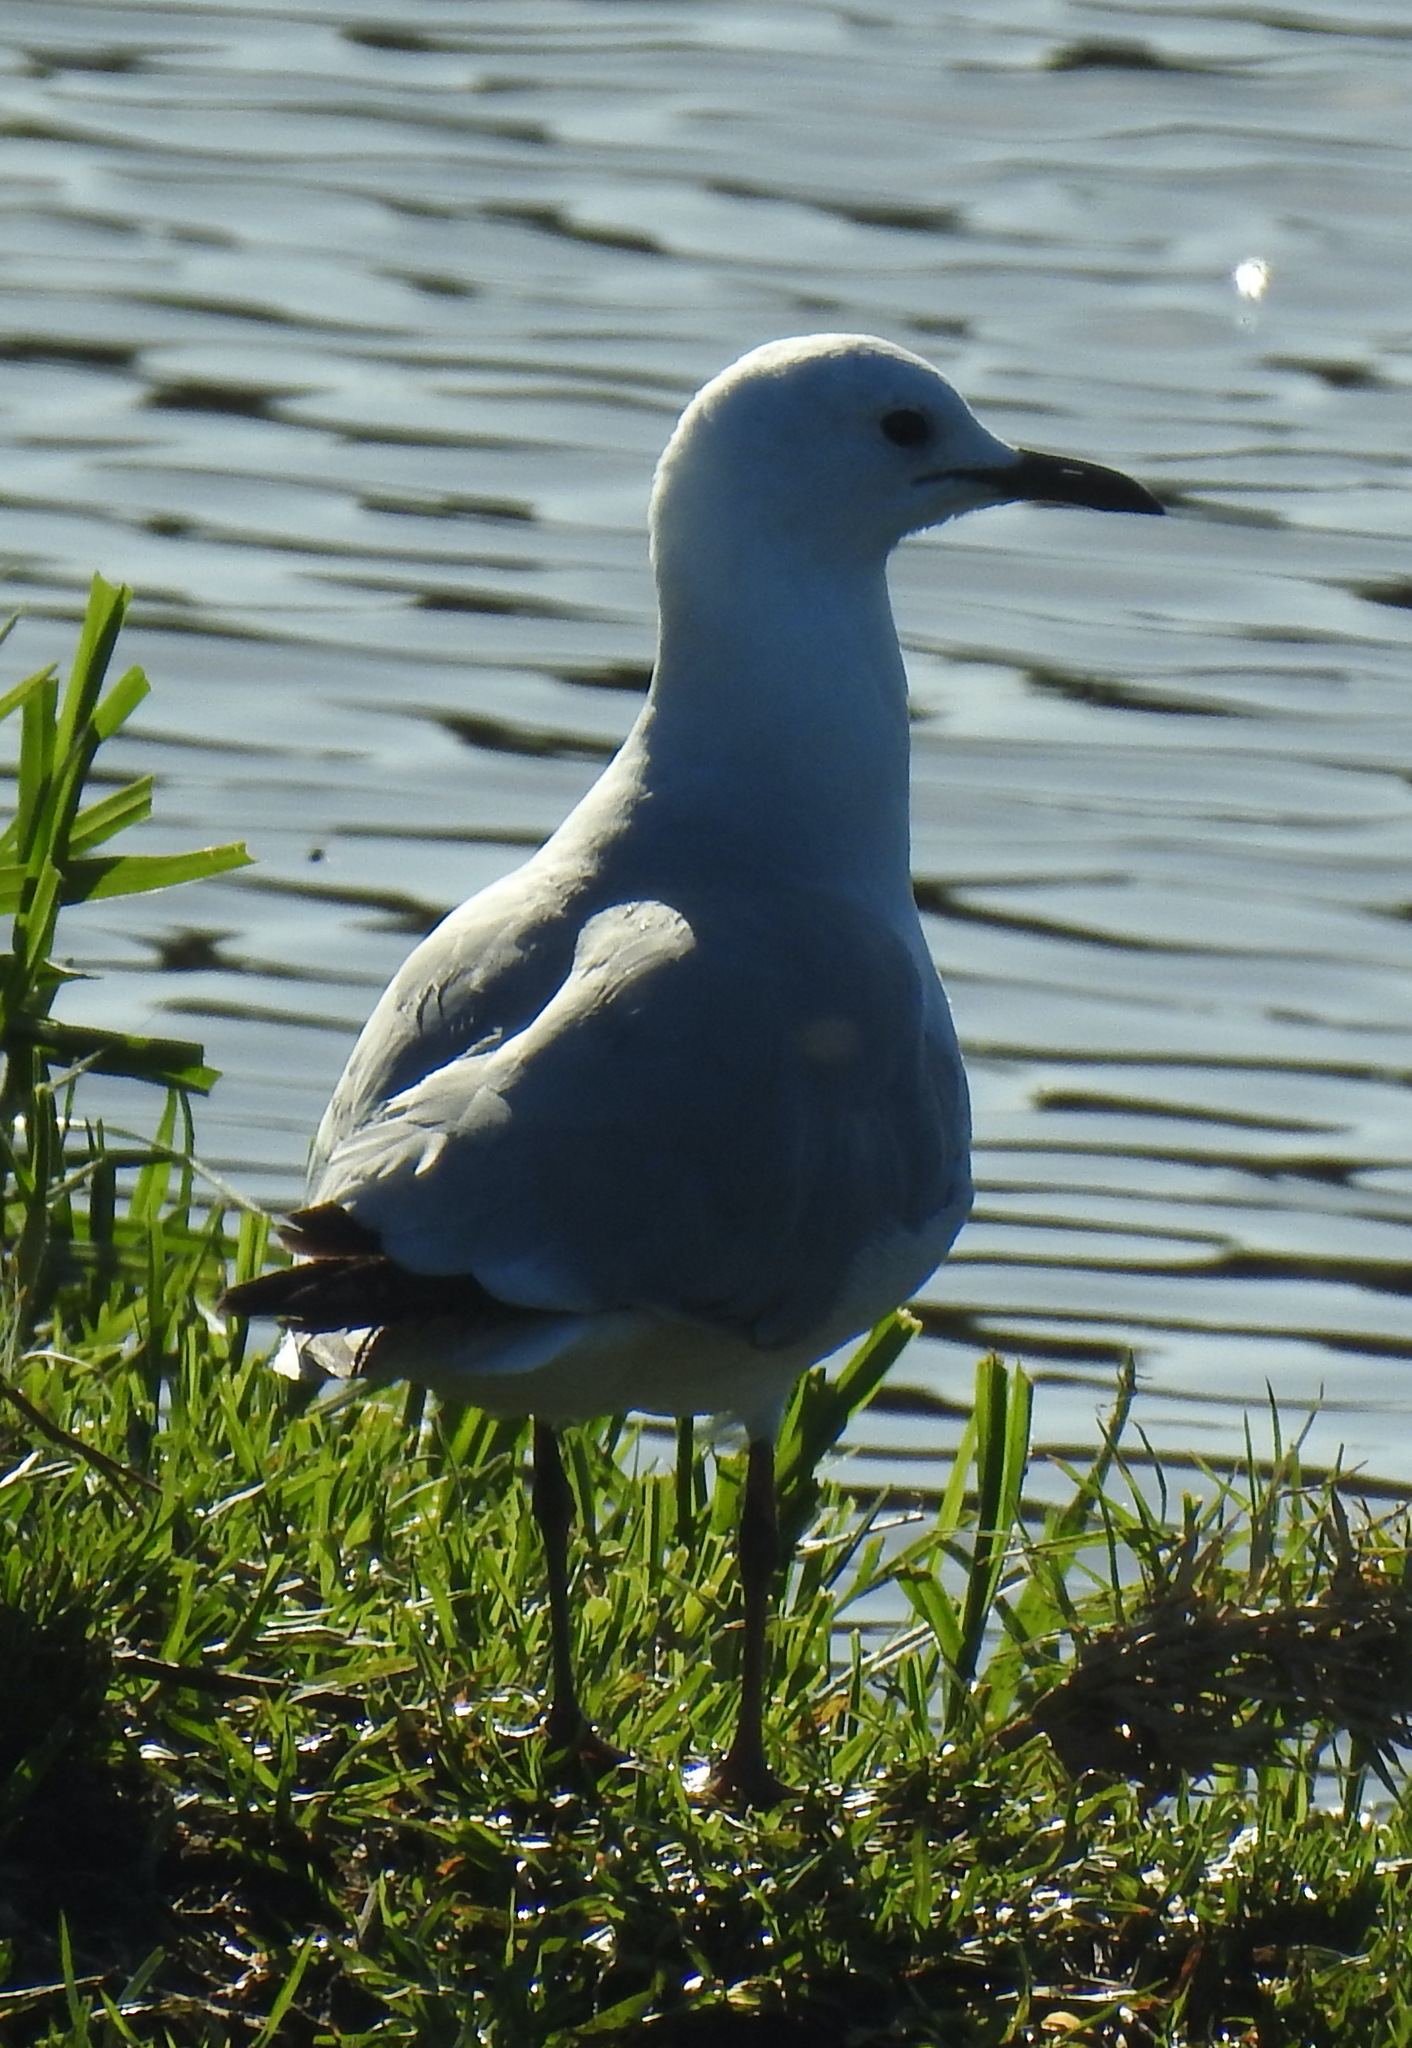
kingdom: Animalia
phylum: Chordata
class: Aves
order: Charadriiformes
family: Laridae
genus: Chroicocephalus
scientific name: Chroicocephalus hartlaubii
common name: Hartlaub's gull
